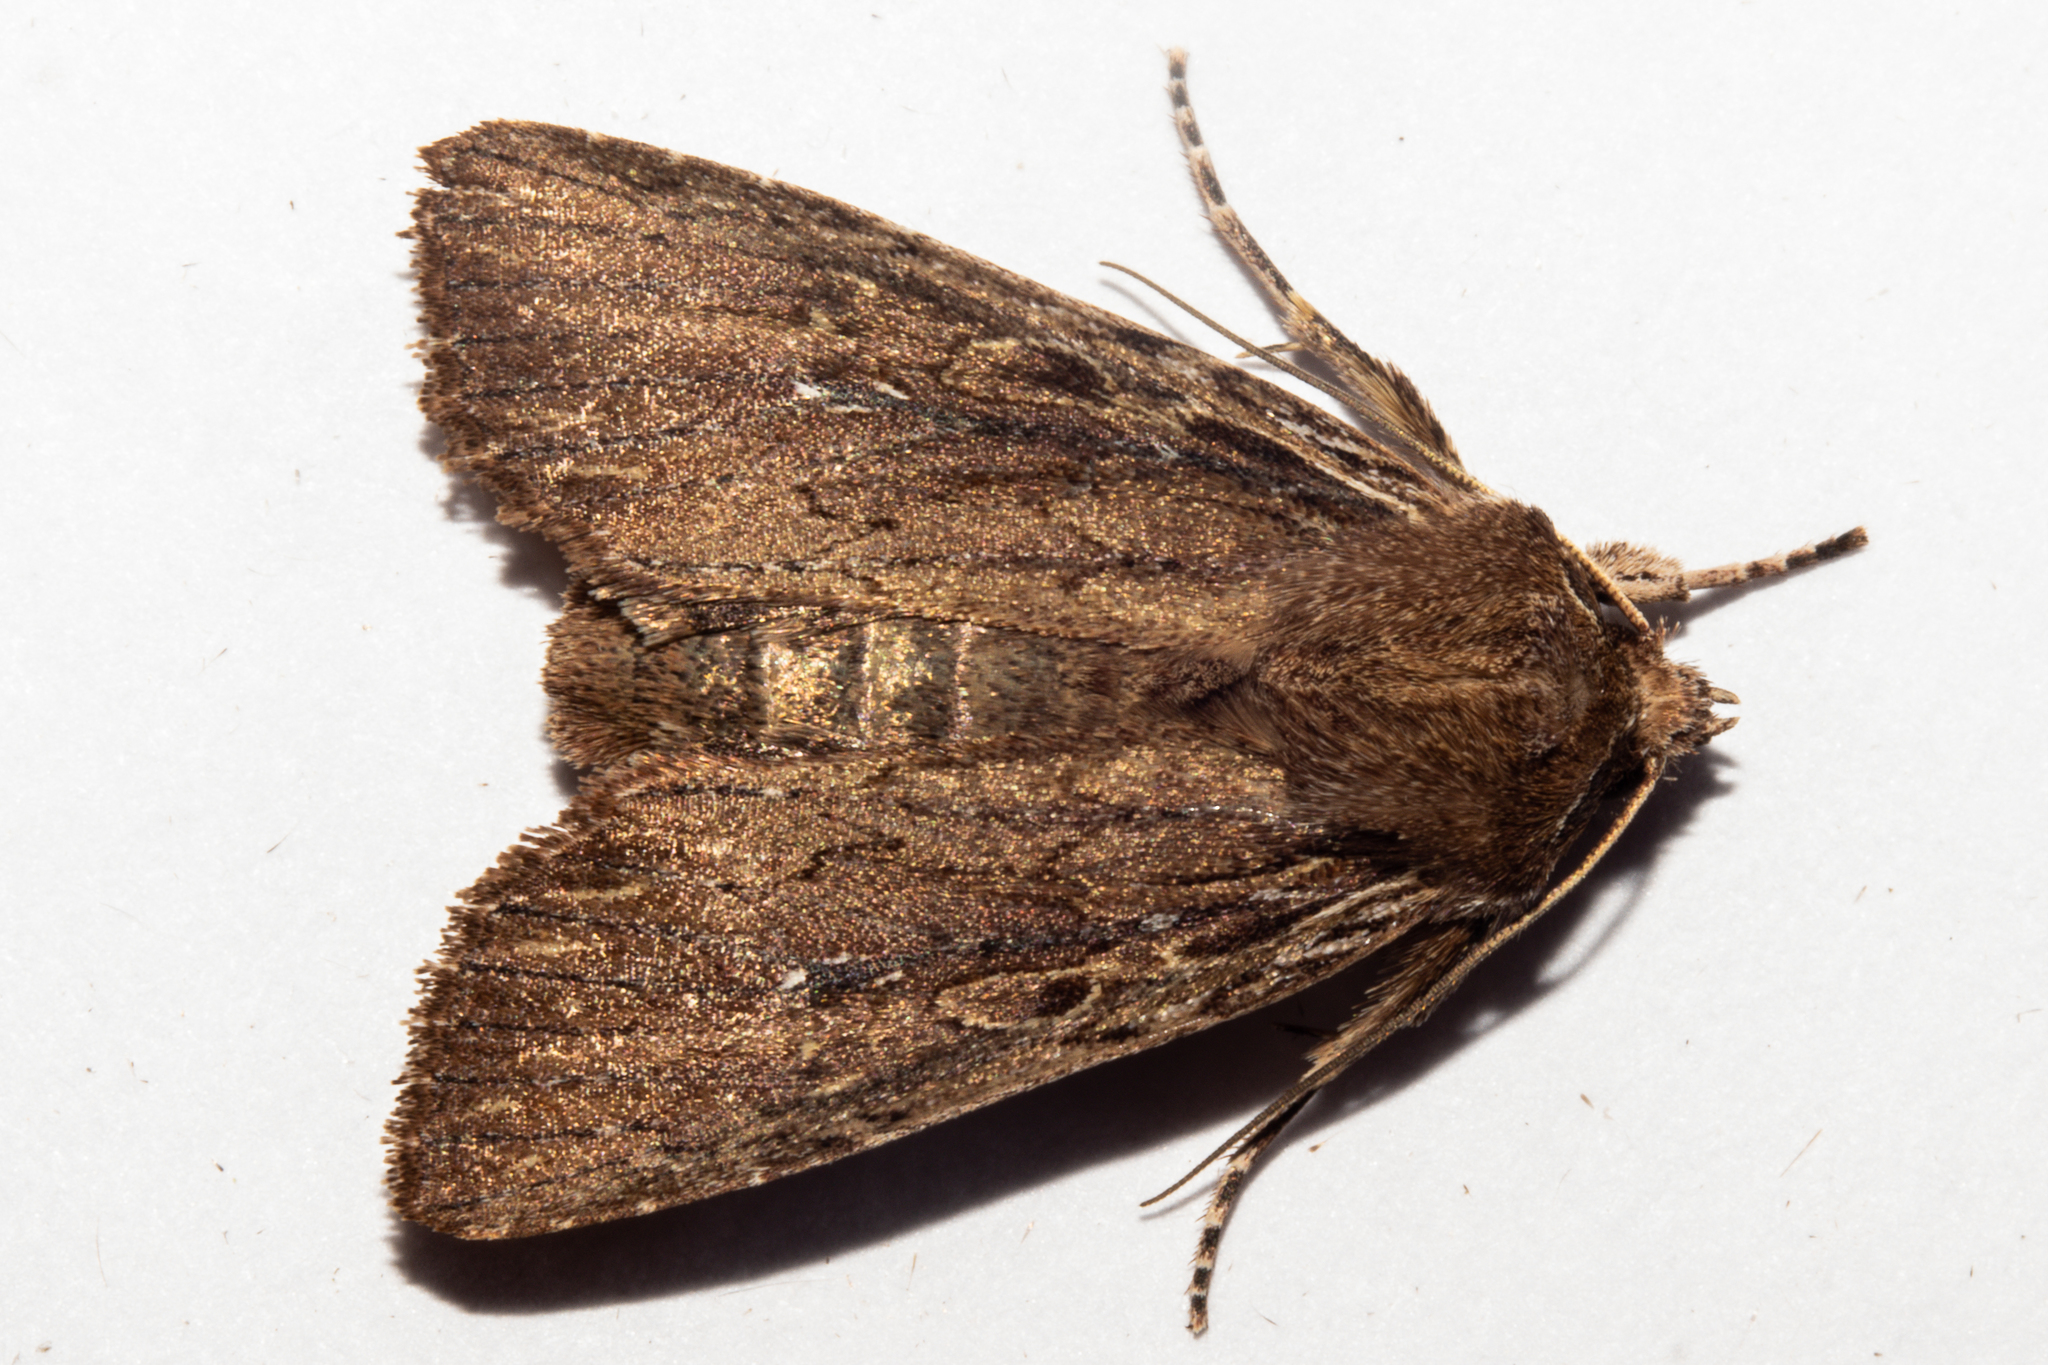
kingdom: Animalia
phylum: Arthropoda
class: Insecta
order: Lepidoptera
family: Noctuidae
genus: Ichneutica
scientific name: Ichneutica
